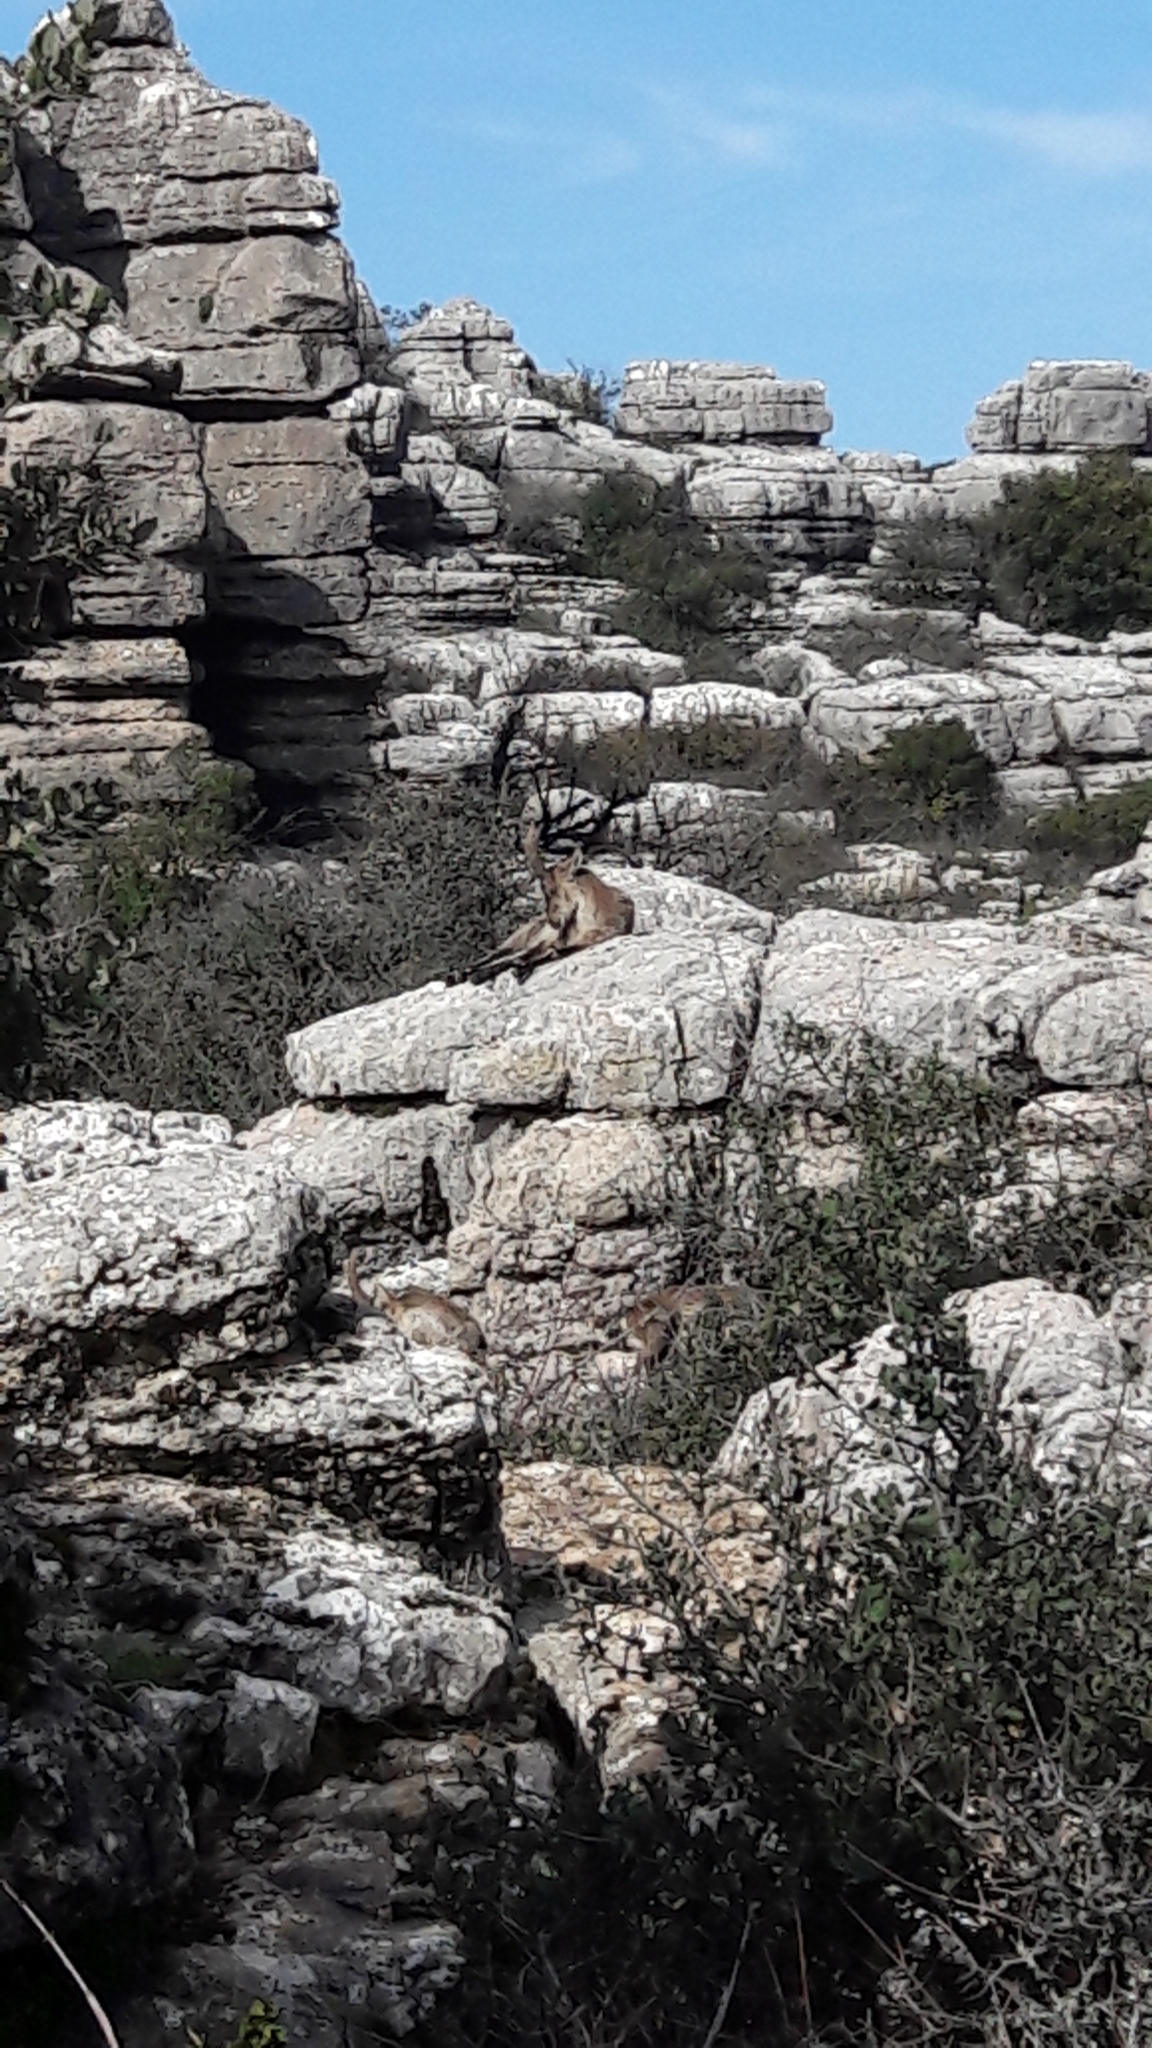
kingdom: Animalia
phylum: Chordata
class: Mammalia
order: Artiodactyla
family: Bovidae
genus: Capra
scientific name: Capra pyrenaica
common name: Spanish ibex
